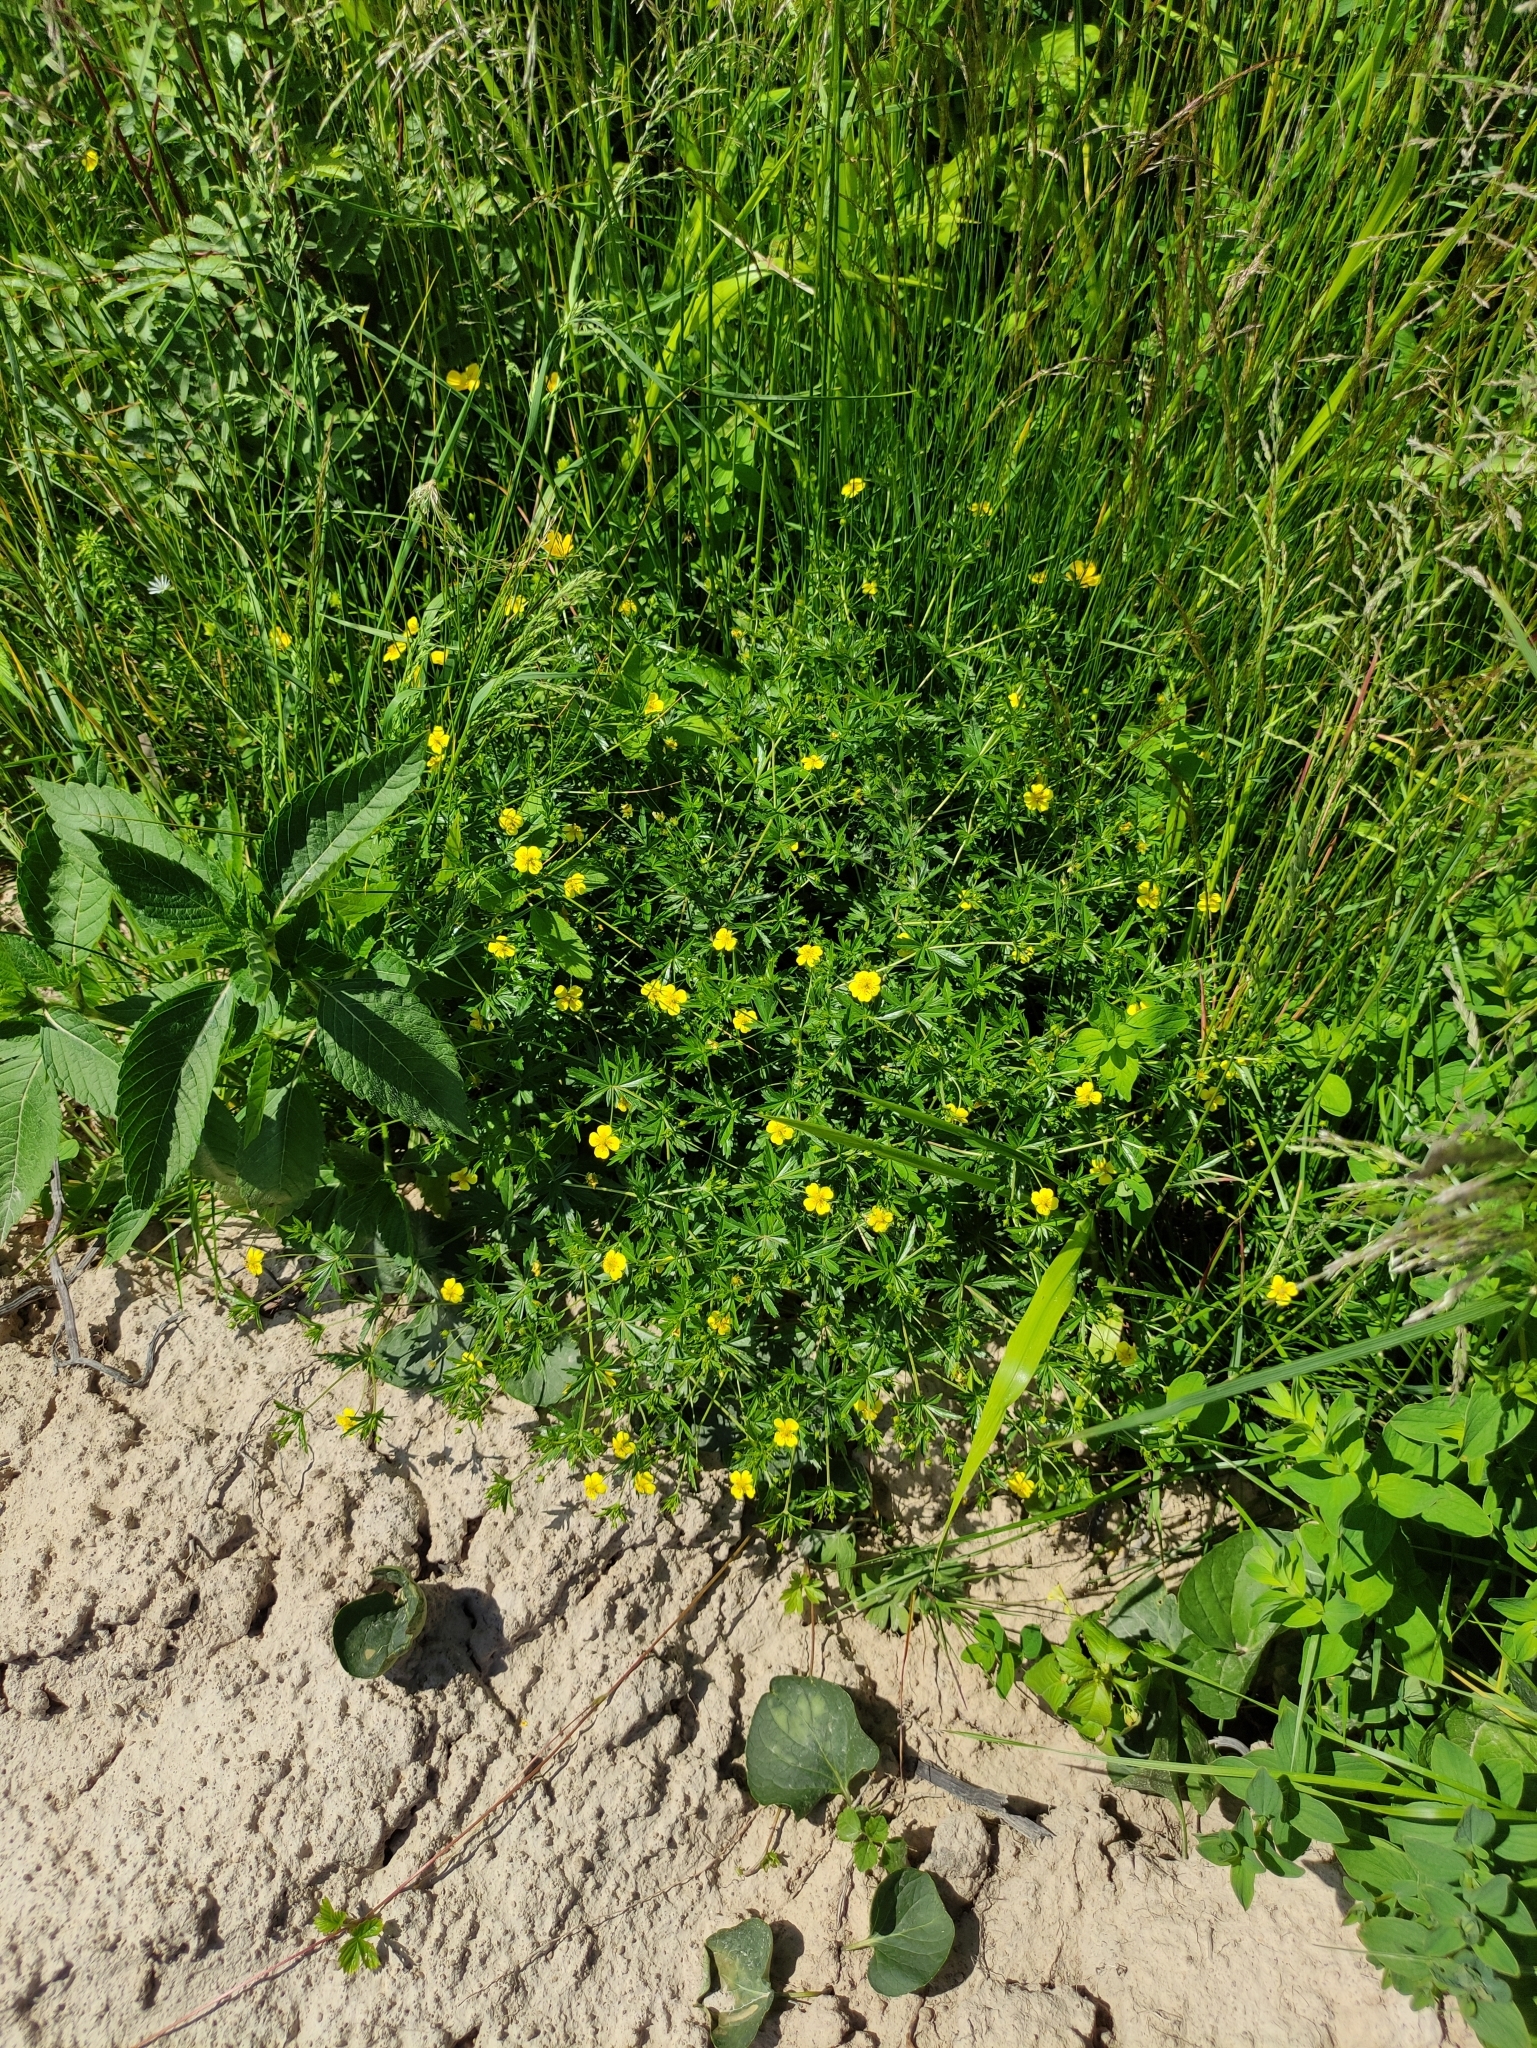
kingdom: Plantae
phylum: Tracheophyta
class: Magnoliopsida
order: Rosales
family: Rosaceae
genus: Potentilla
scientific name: Potentilla erecta
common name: Tormentil
